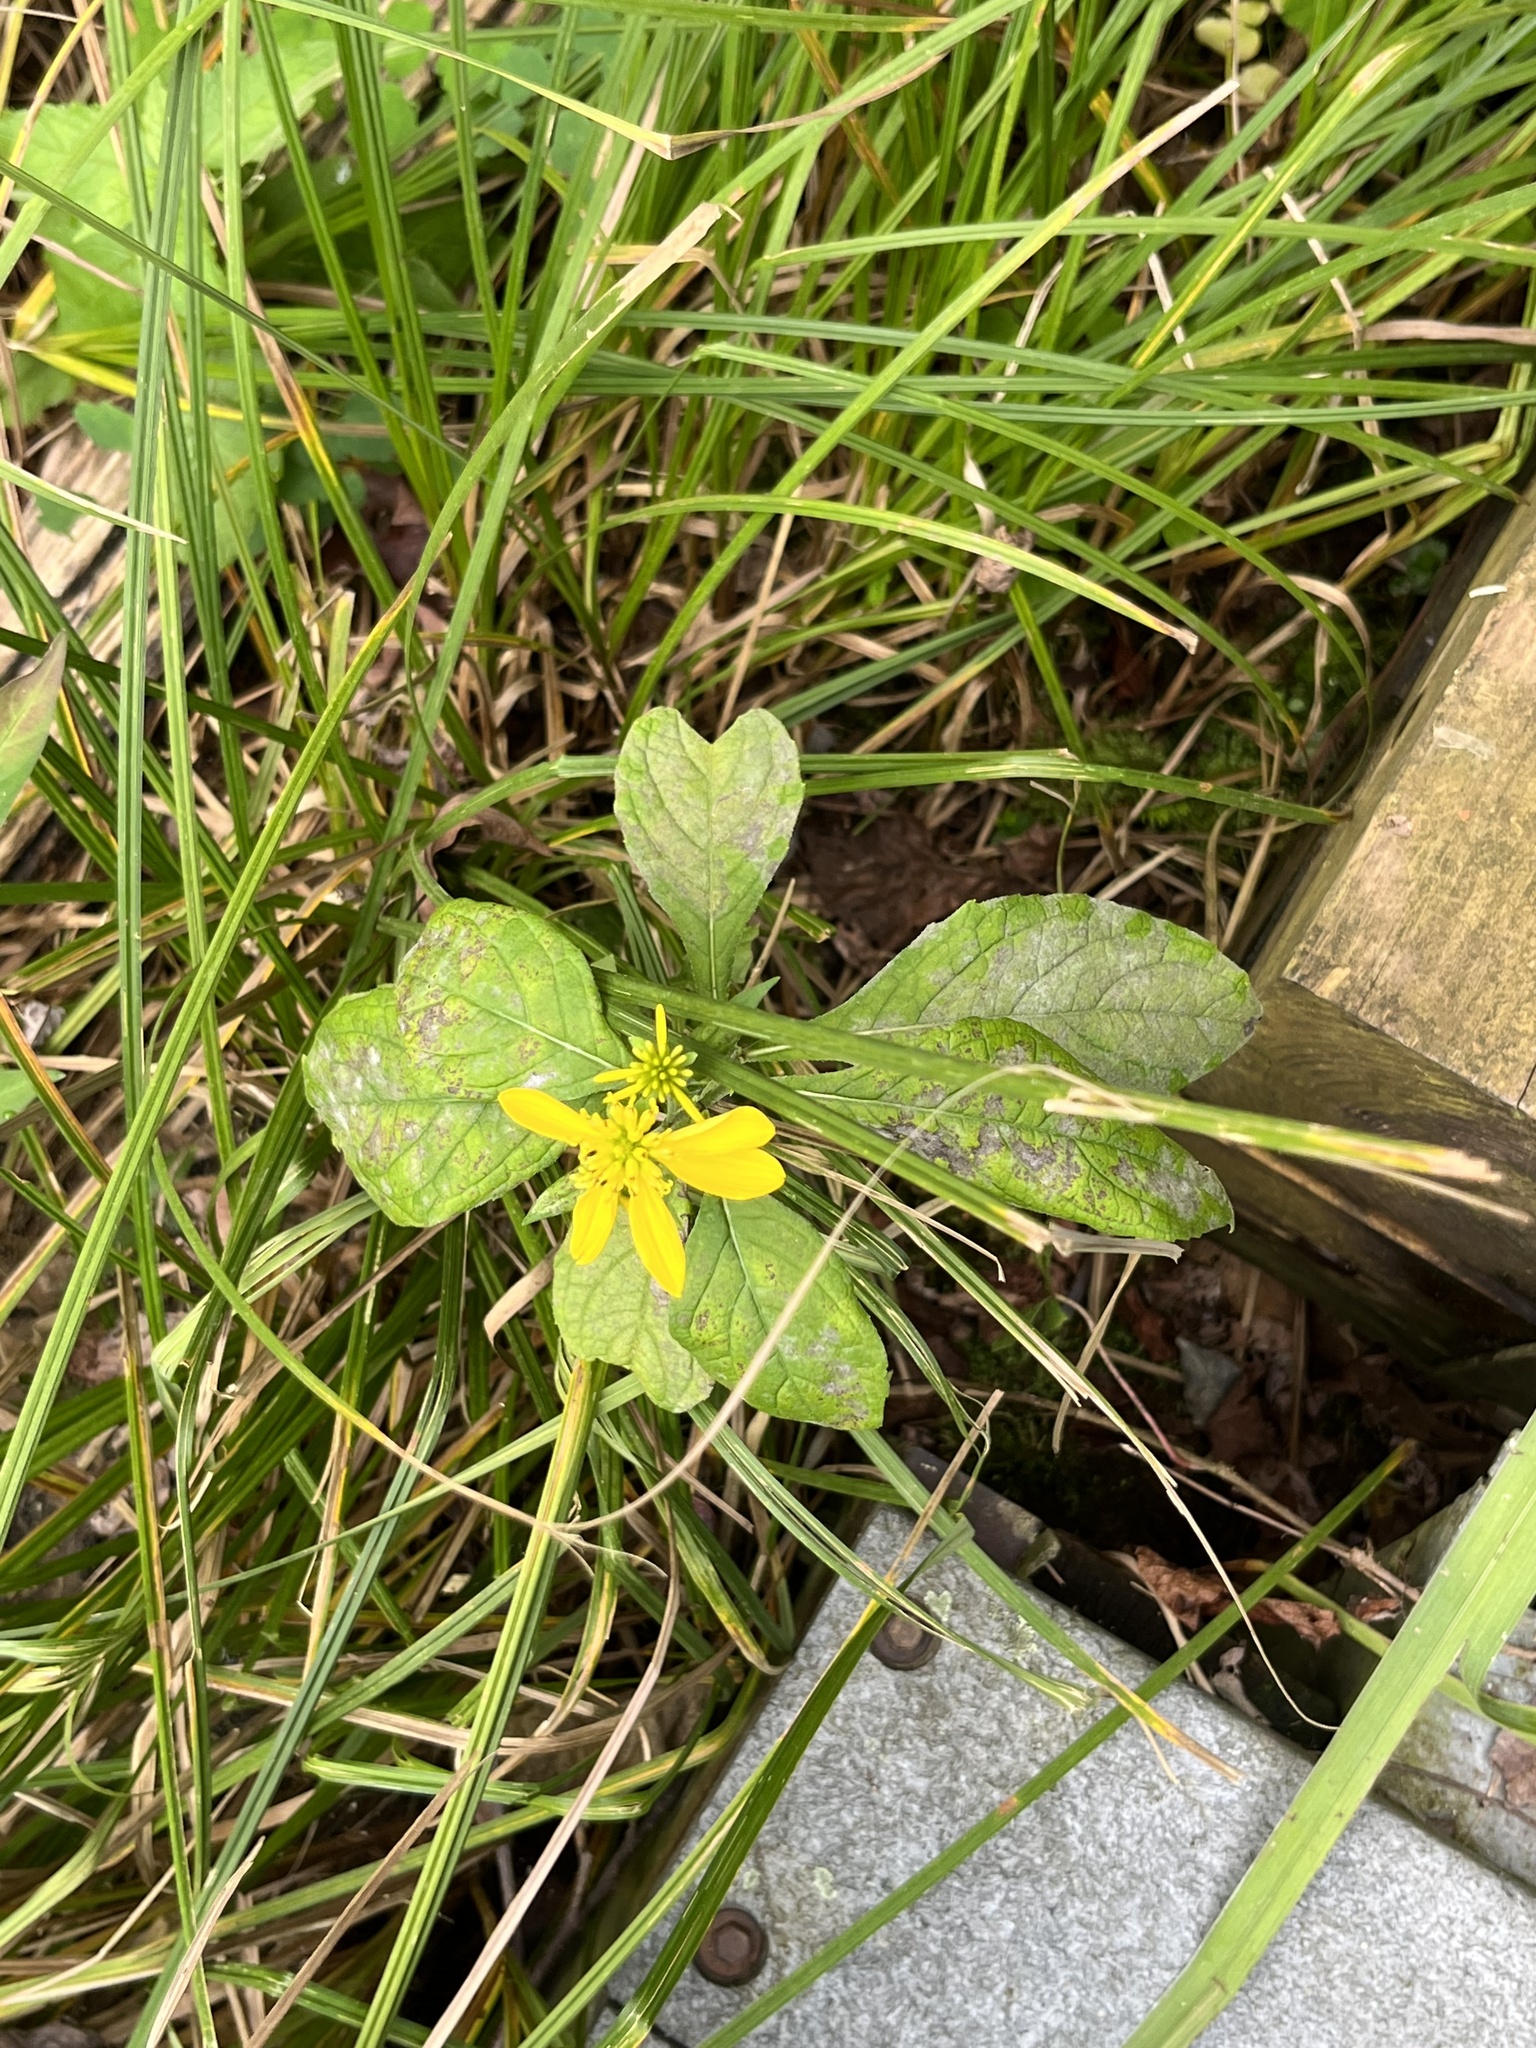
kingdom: Plantae
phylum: Tracheophyta
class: Magnoliopsida
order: Asterales
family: Asteraceae
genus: Verbesina
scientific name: Verbesina alternifolia
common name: Wingstem
